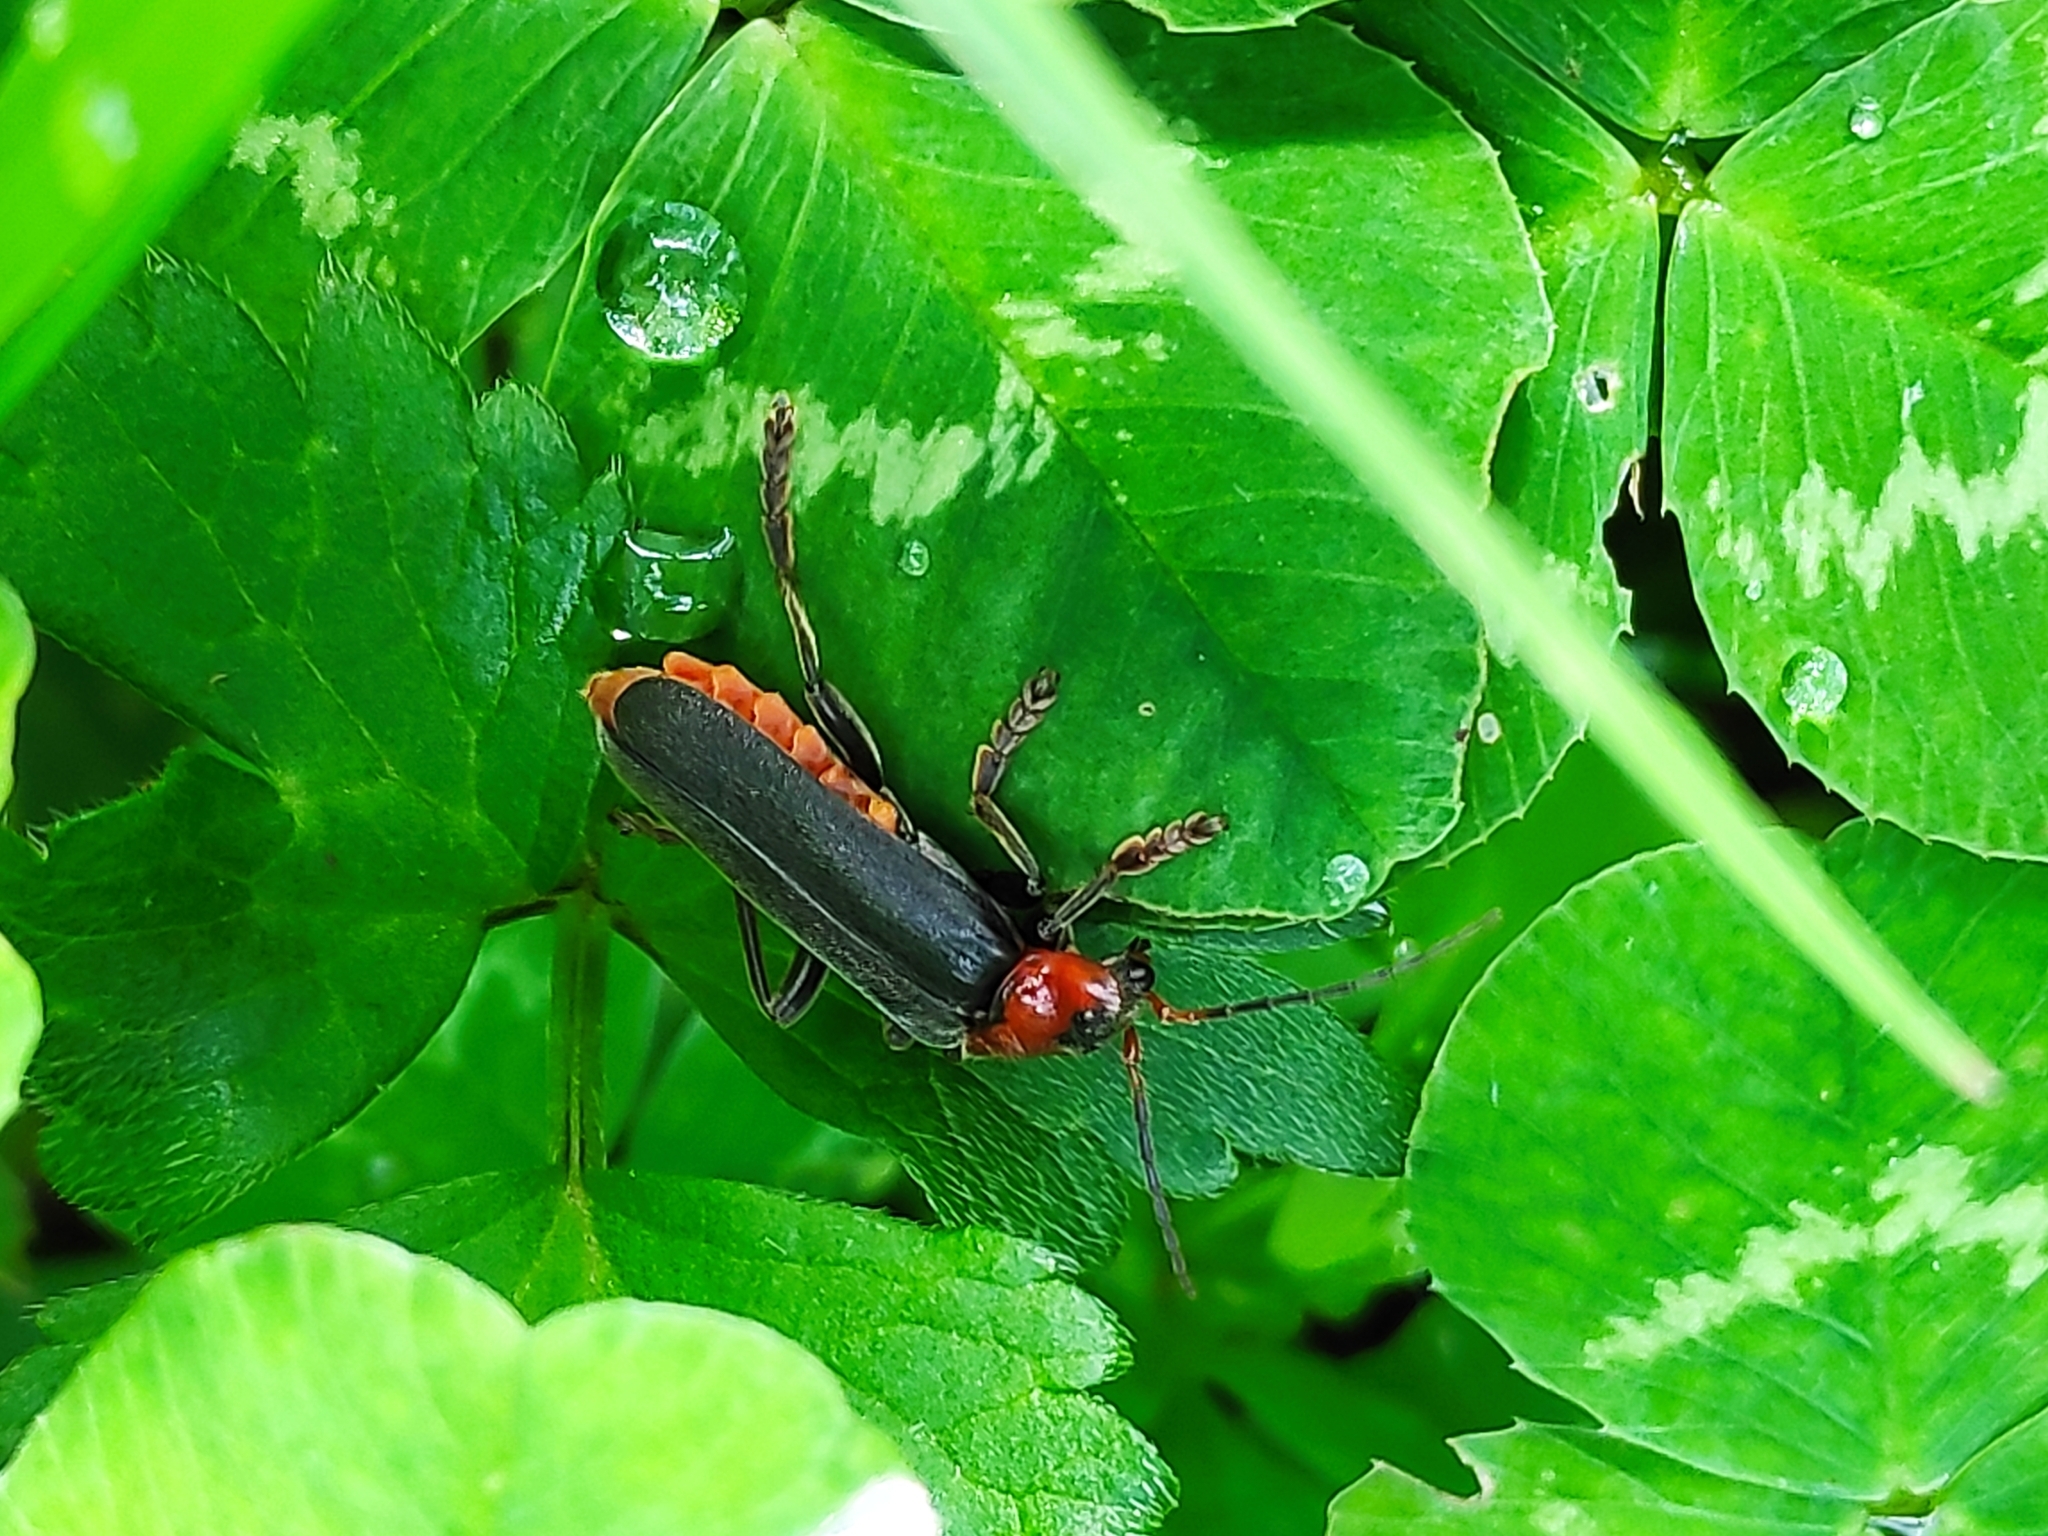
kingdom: Animalia
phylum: Arthropoda
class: Insecta
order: Coleoptera
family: Cantharidae
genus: Cantharis
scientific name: Cantharis fusca
